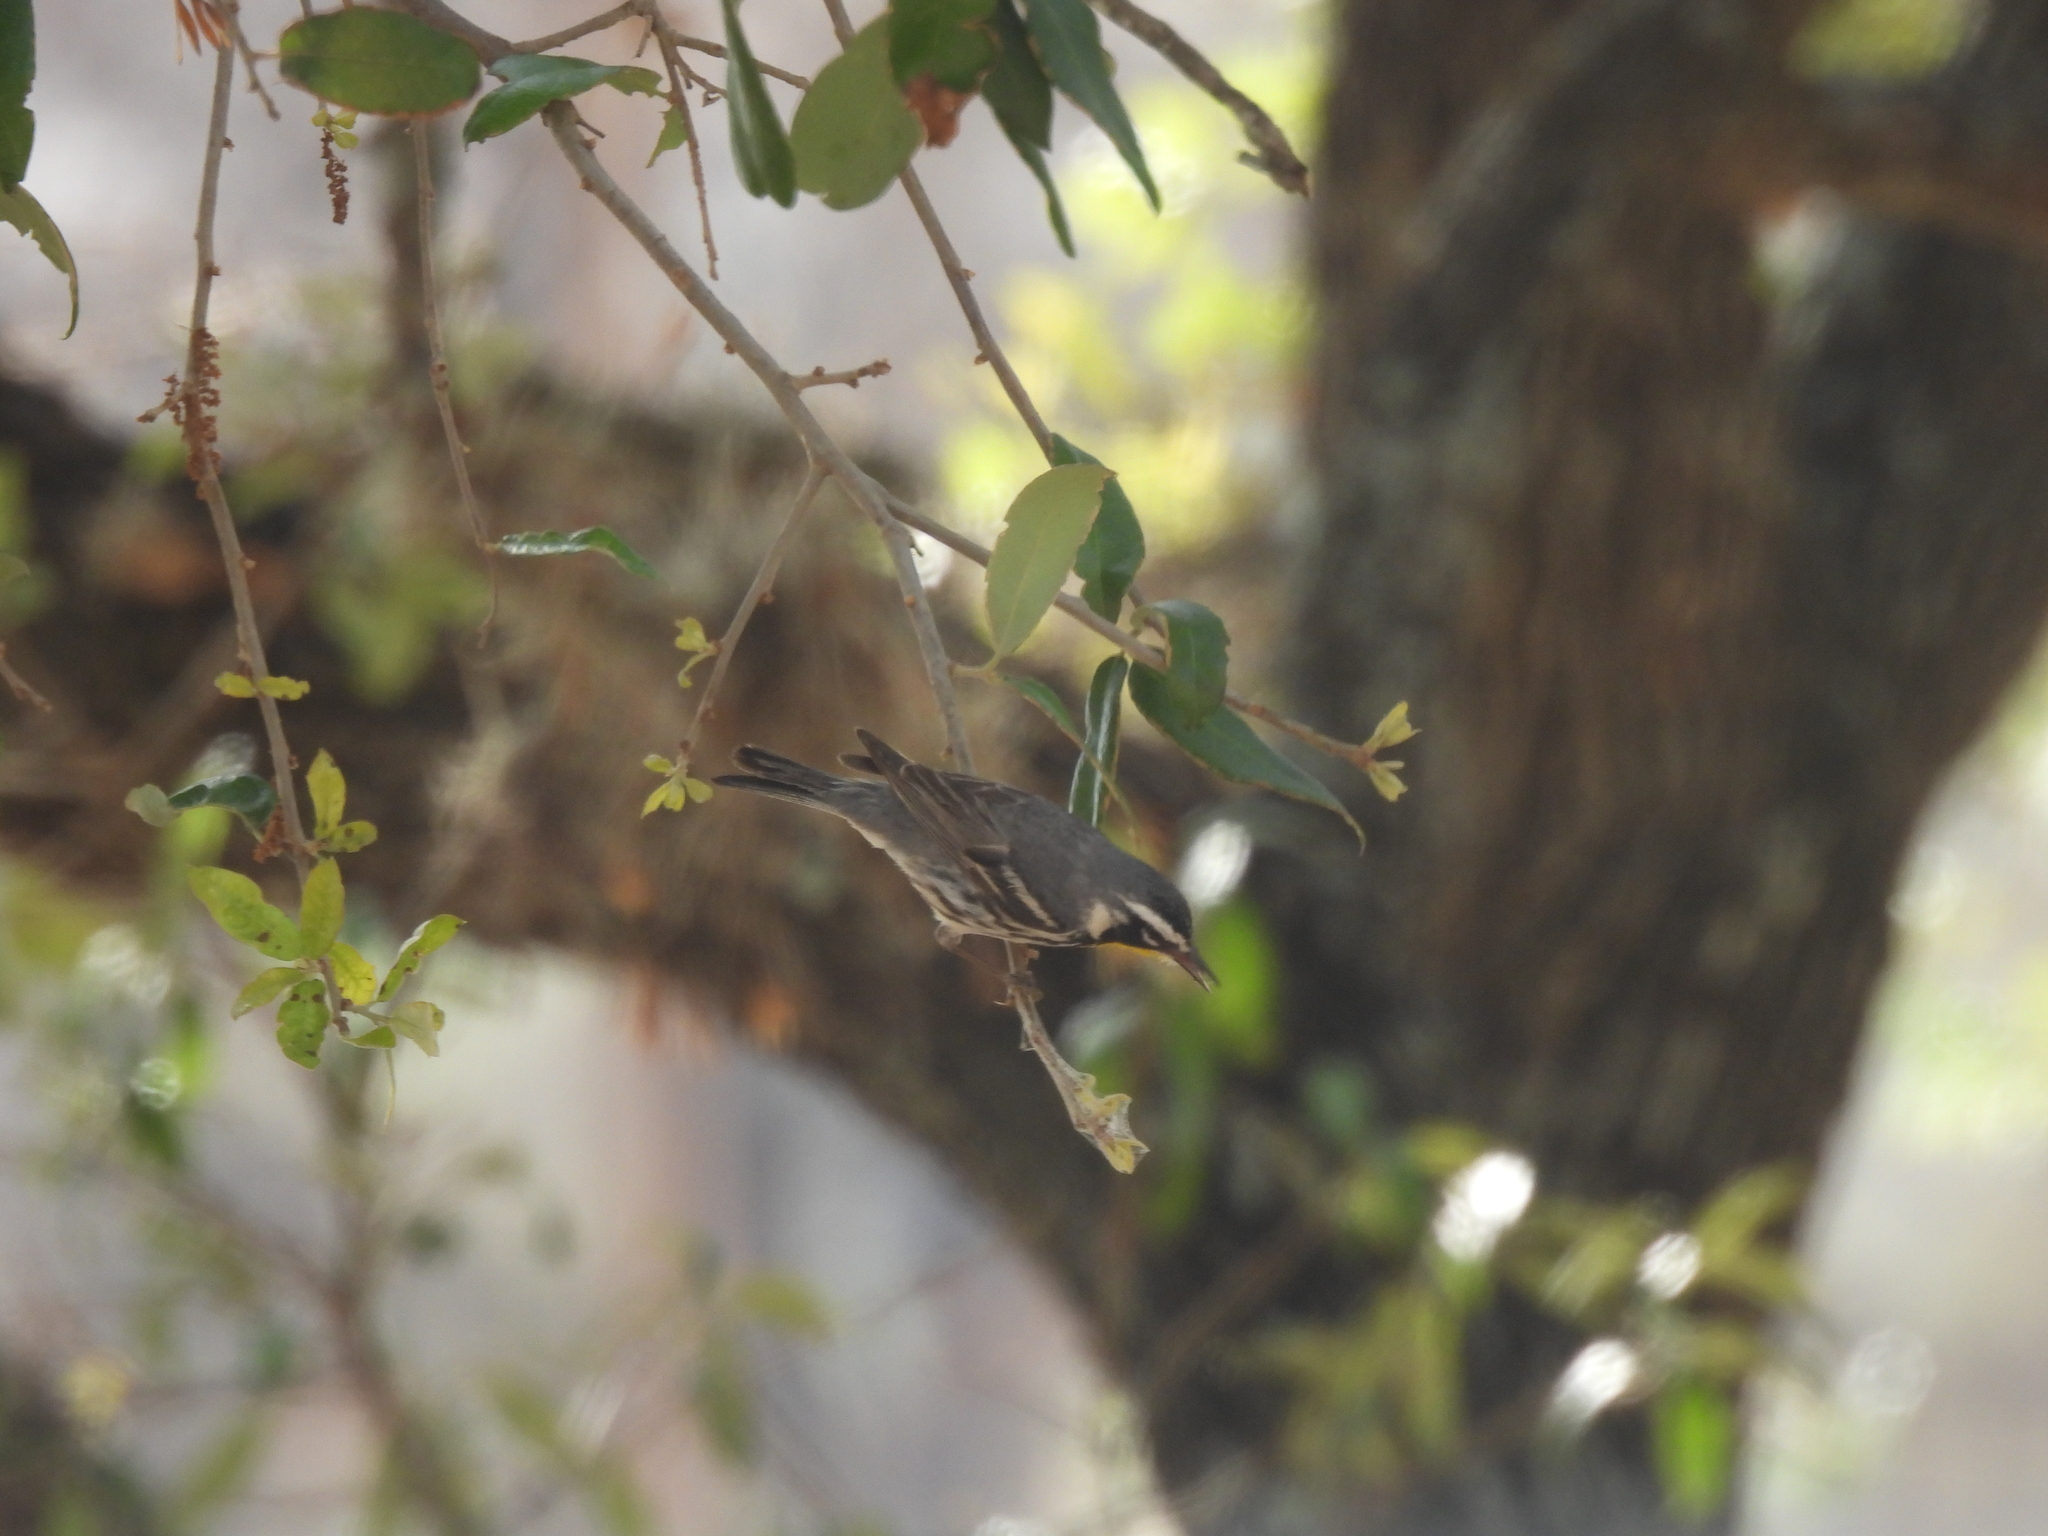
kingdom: Animalia
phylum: Chordata
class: Aves
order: Passeriformes
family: Parulidae
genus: Setophaga
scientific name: Setophaga dominica
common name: Yellow-throated warbler
